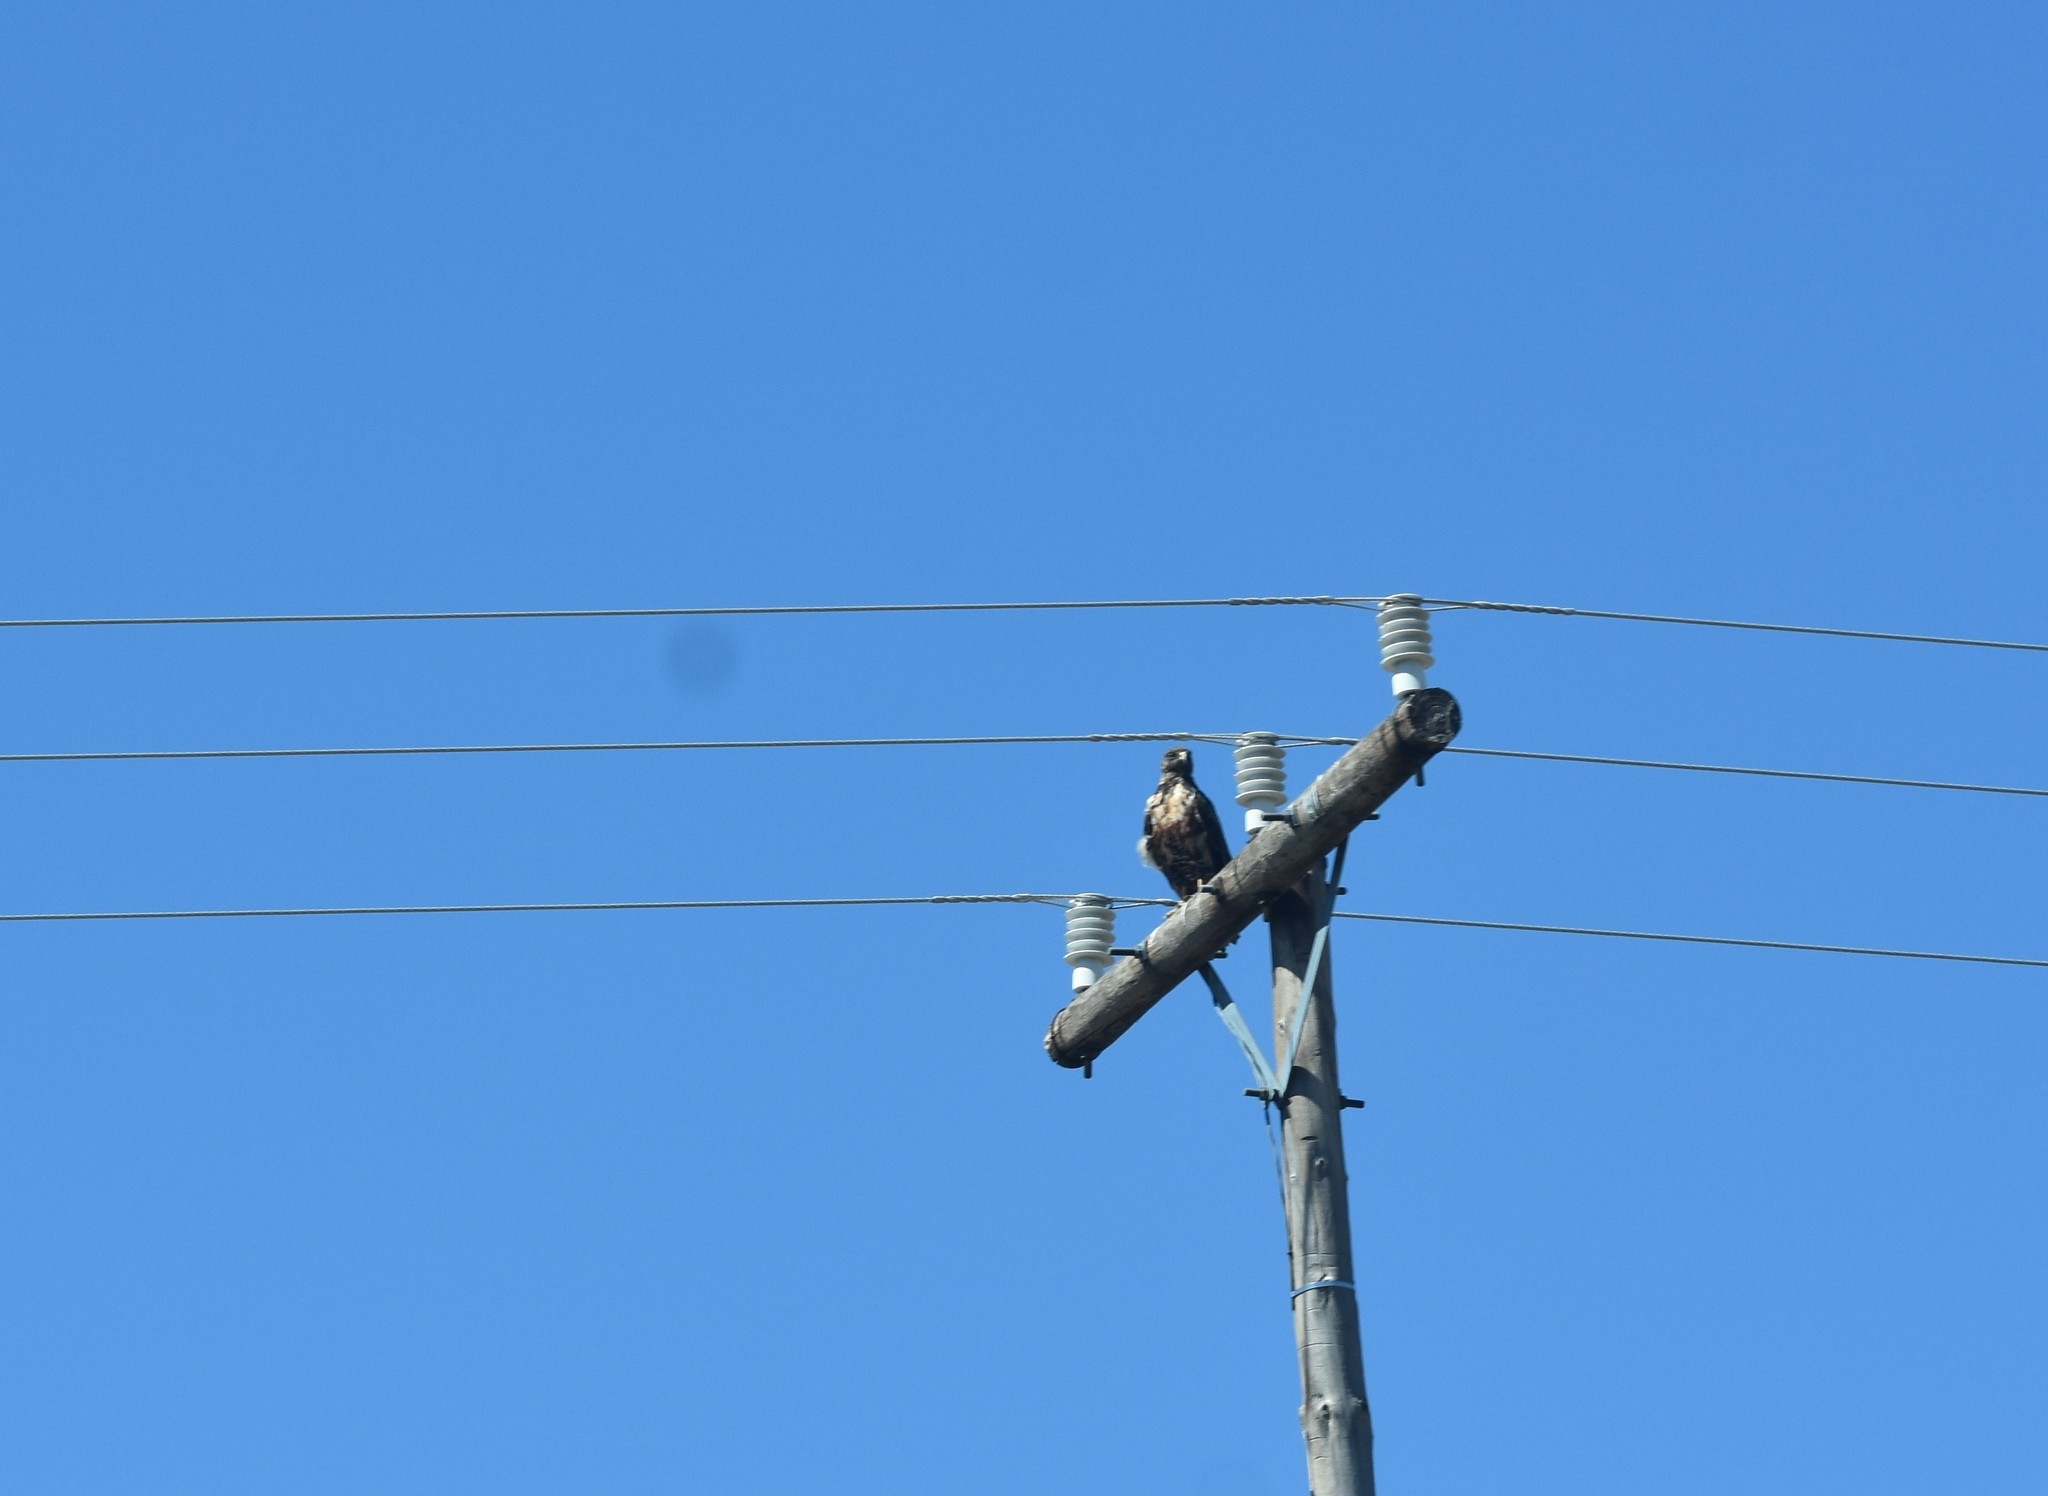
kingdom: Animalia
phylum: Chordata
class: Aves
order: Accipitriformes
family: Accipitridae
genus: Buteo
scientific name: Buteo rufofuscus
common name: Jackal buzzard
